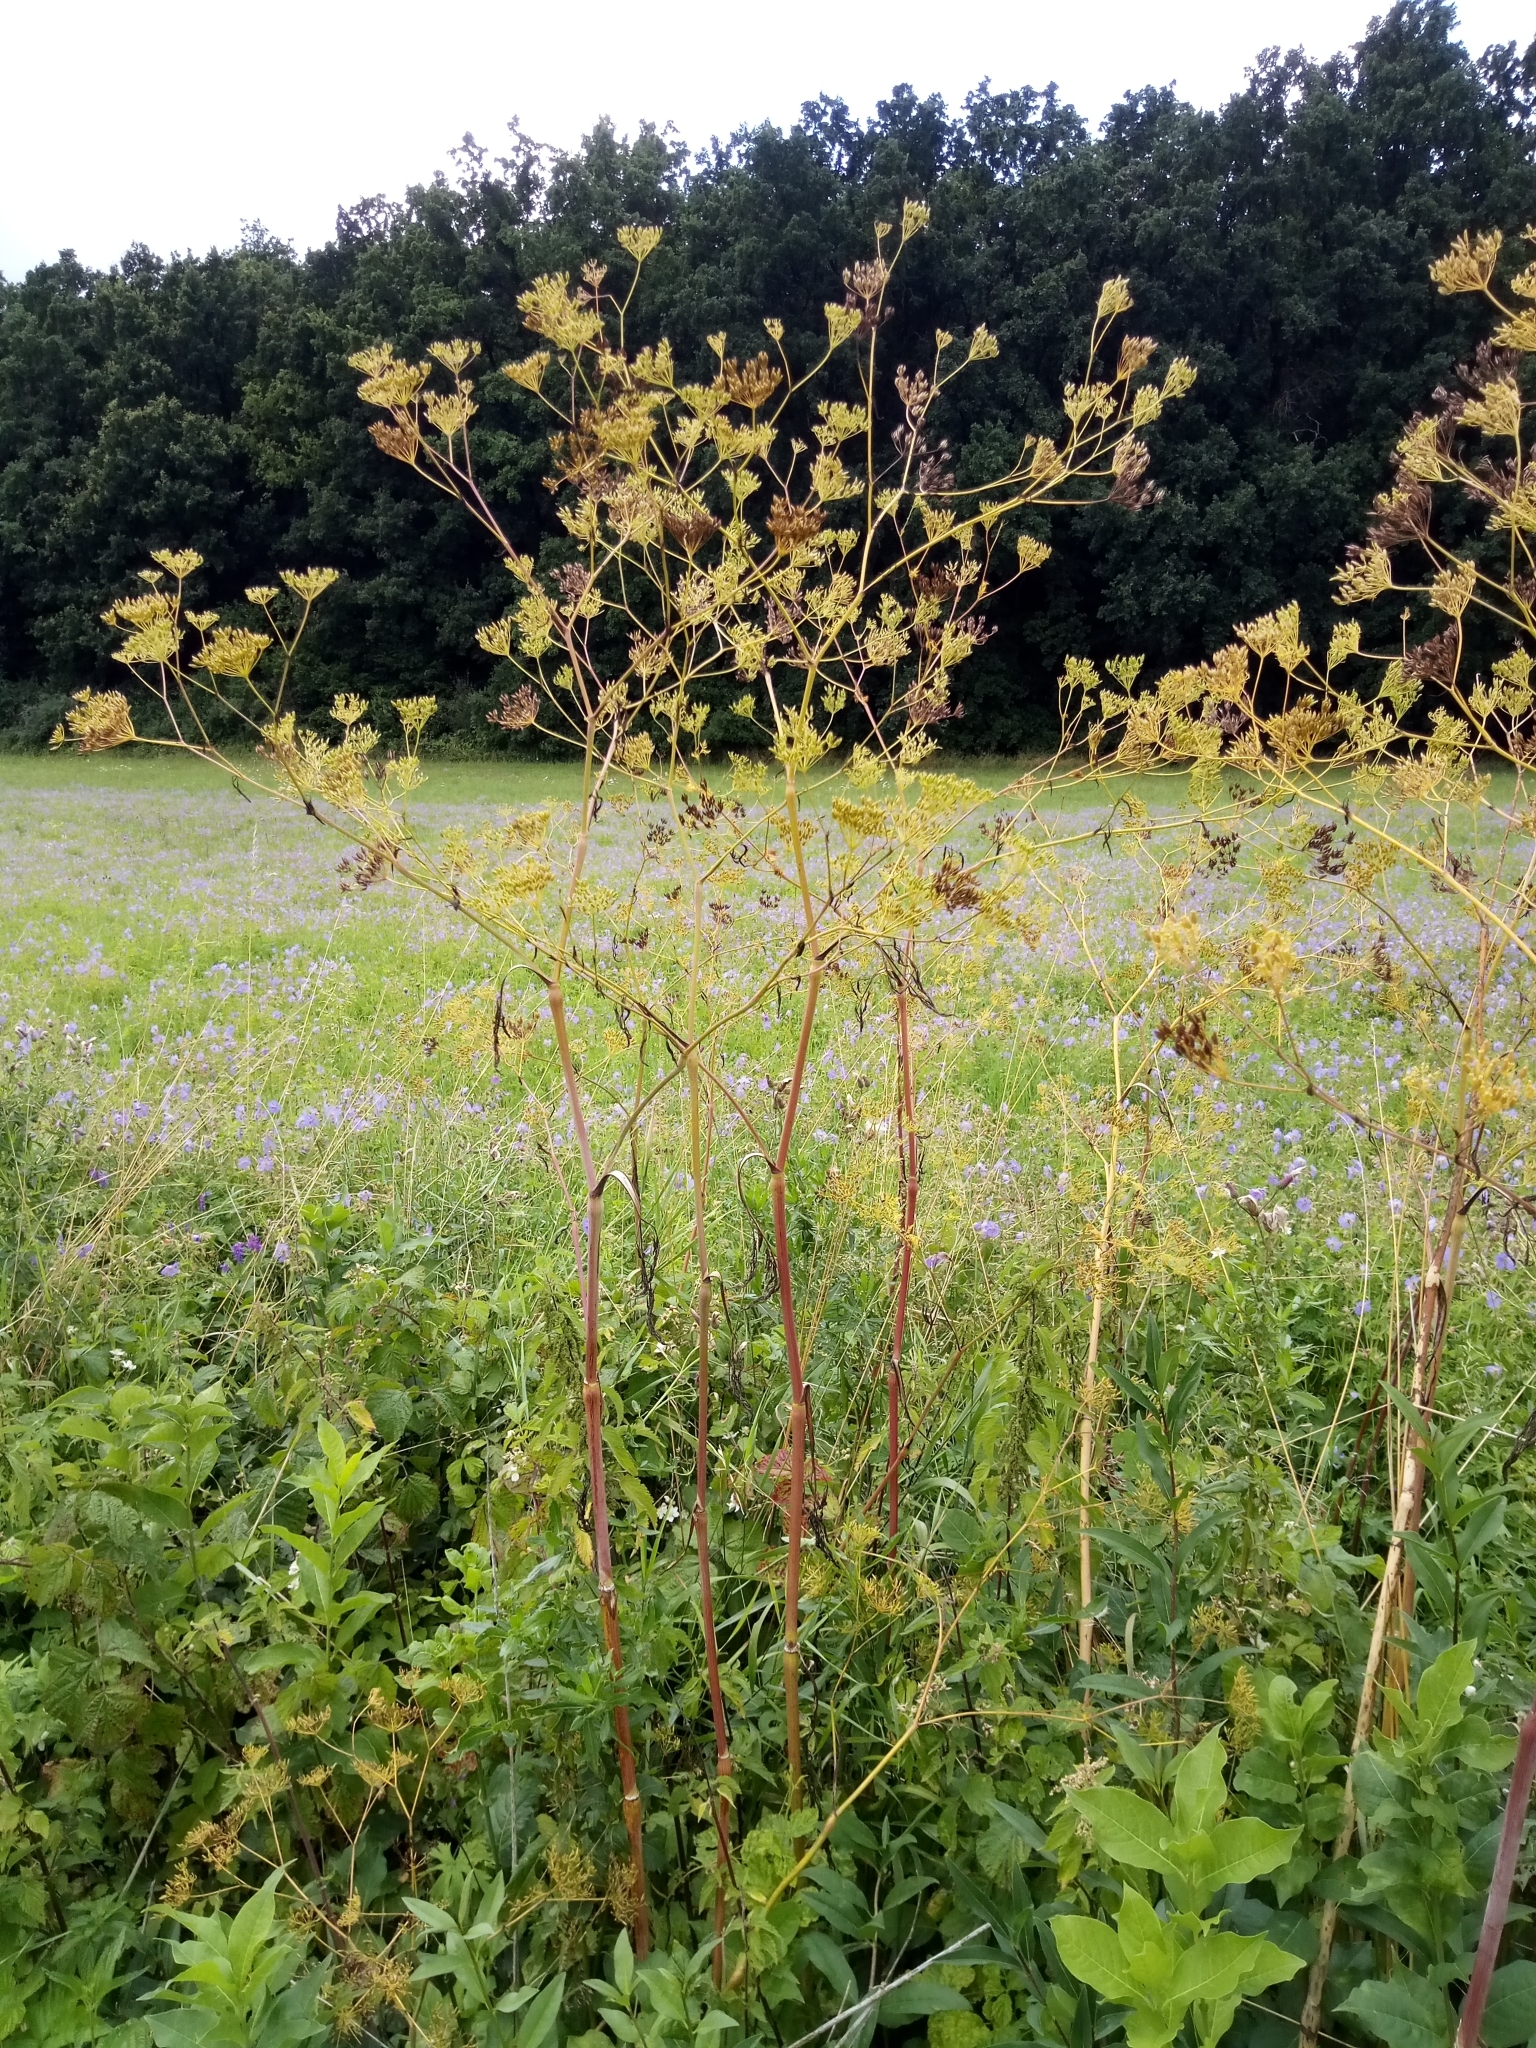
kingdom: Plantae
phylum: Tracheophyta
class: Magnoliopsida
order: Apiales
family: Apiaceae
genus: Chaerophyllum
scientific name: Chaerophyllum bulbosum
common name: Bulbous chervil
